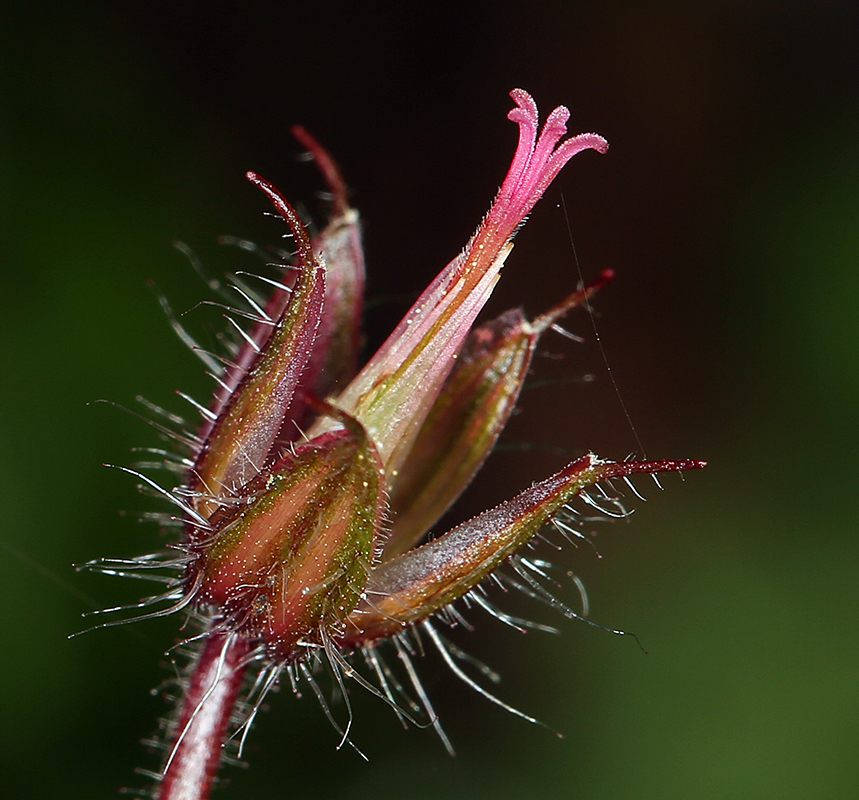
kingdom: Plantae
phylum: Tracheophyta
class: Magnoliopsida
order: Geraniales
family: Geraniaceae
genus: Geranium
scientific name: Geranium robertianum
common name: Herb-robert
